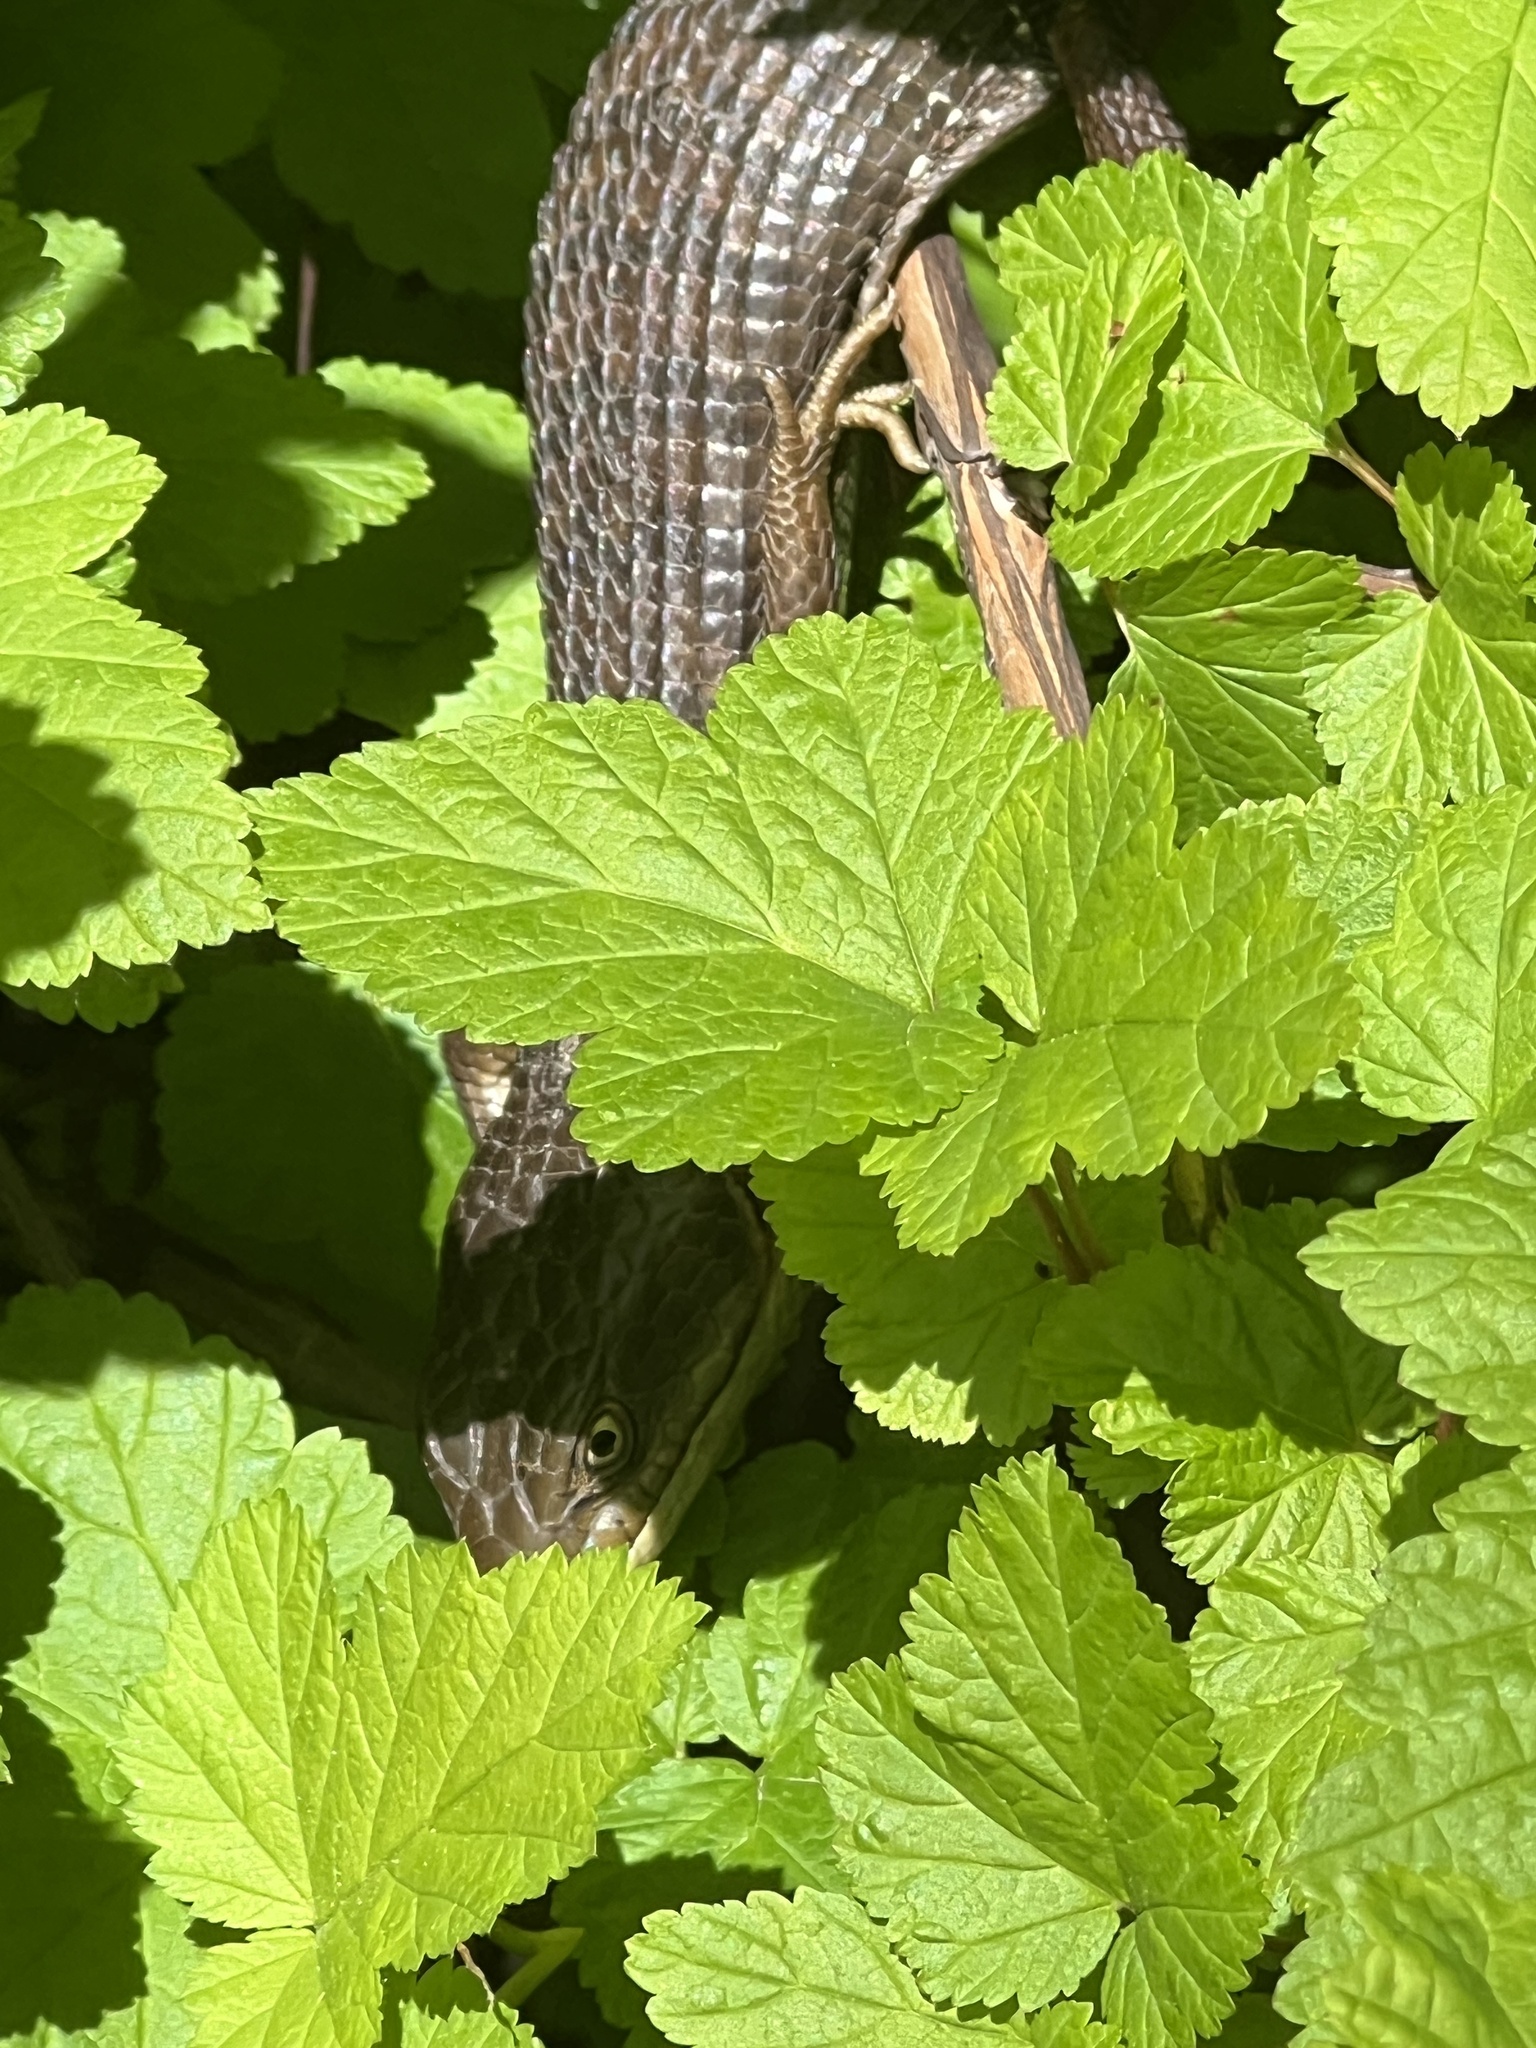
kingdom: Animalia
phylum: Chordata
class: Squamata
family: Anguidae
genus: Elgaria
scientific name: Elgaria multicarinata
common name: Southern alligator lizard
